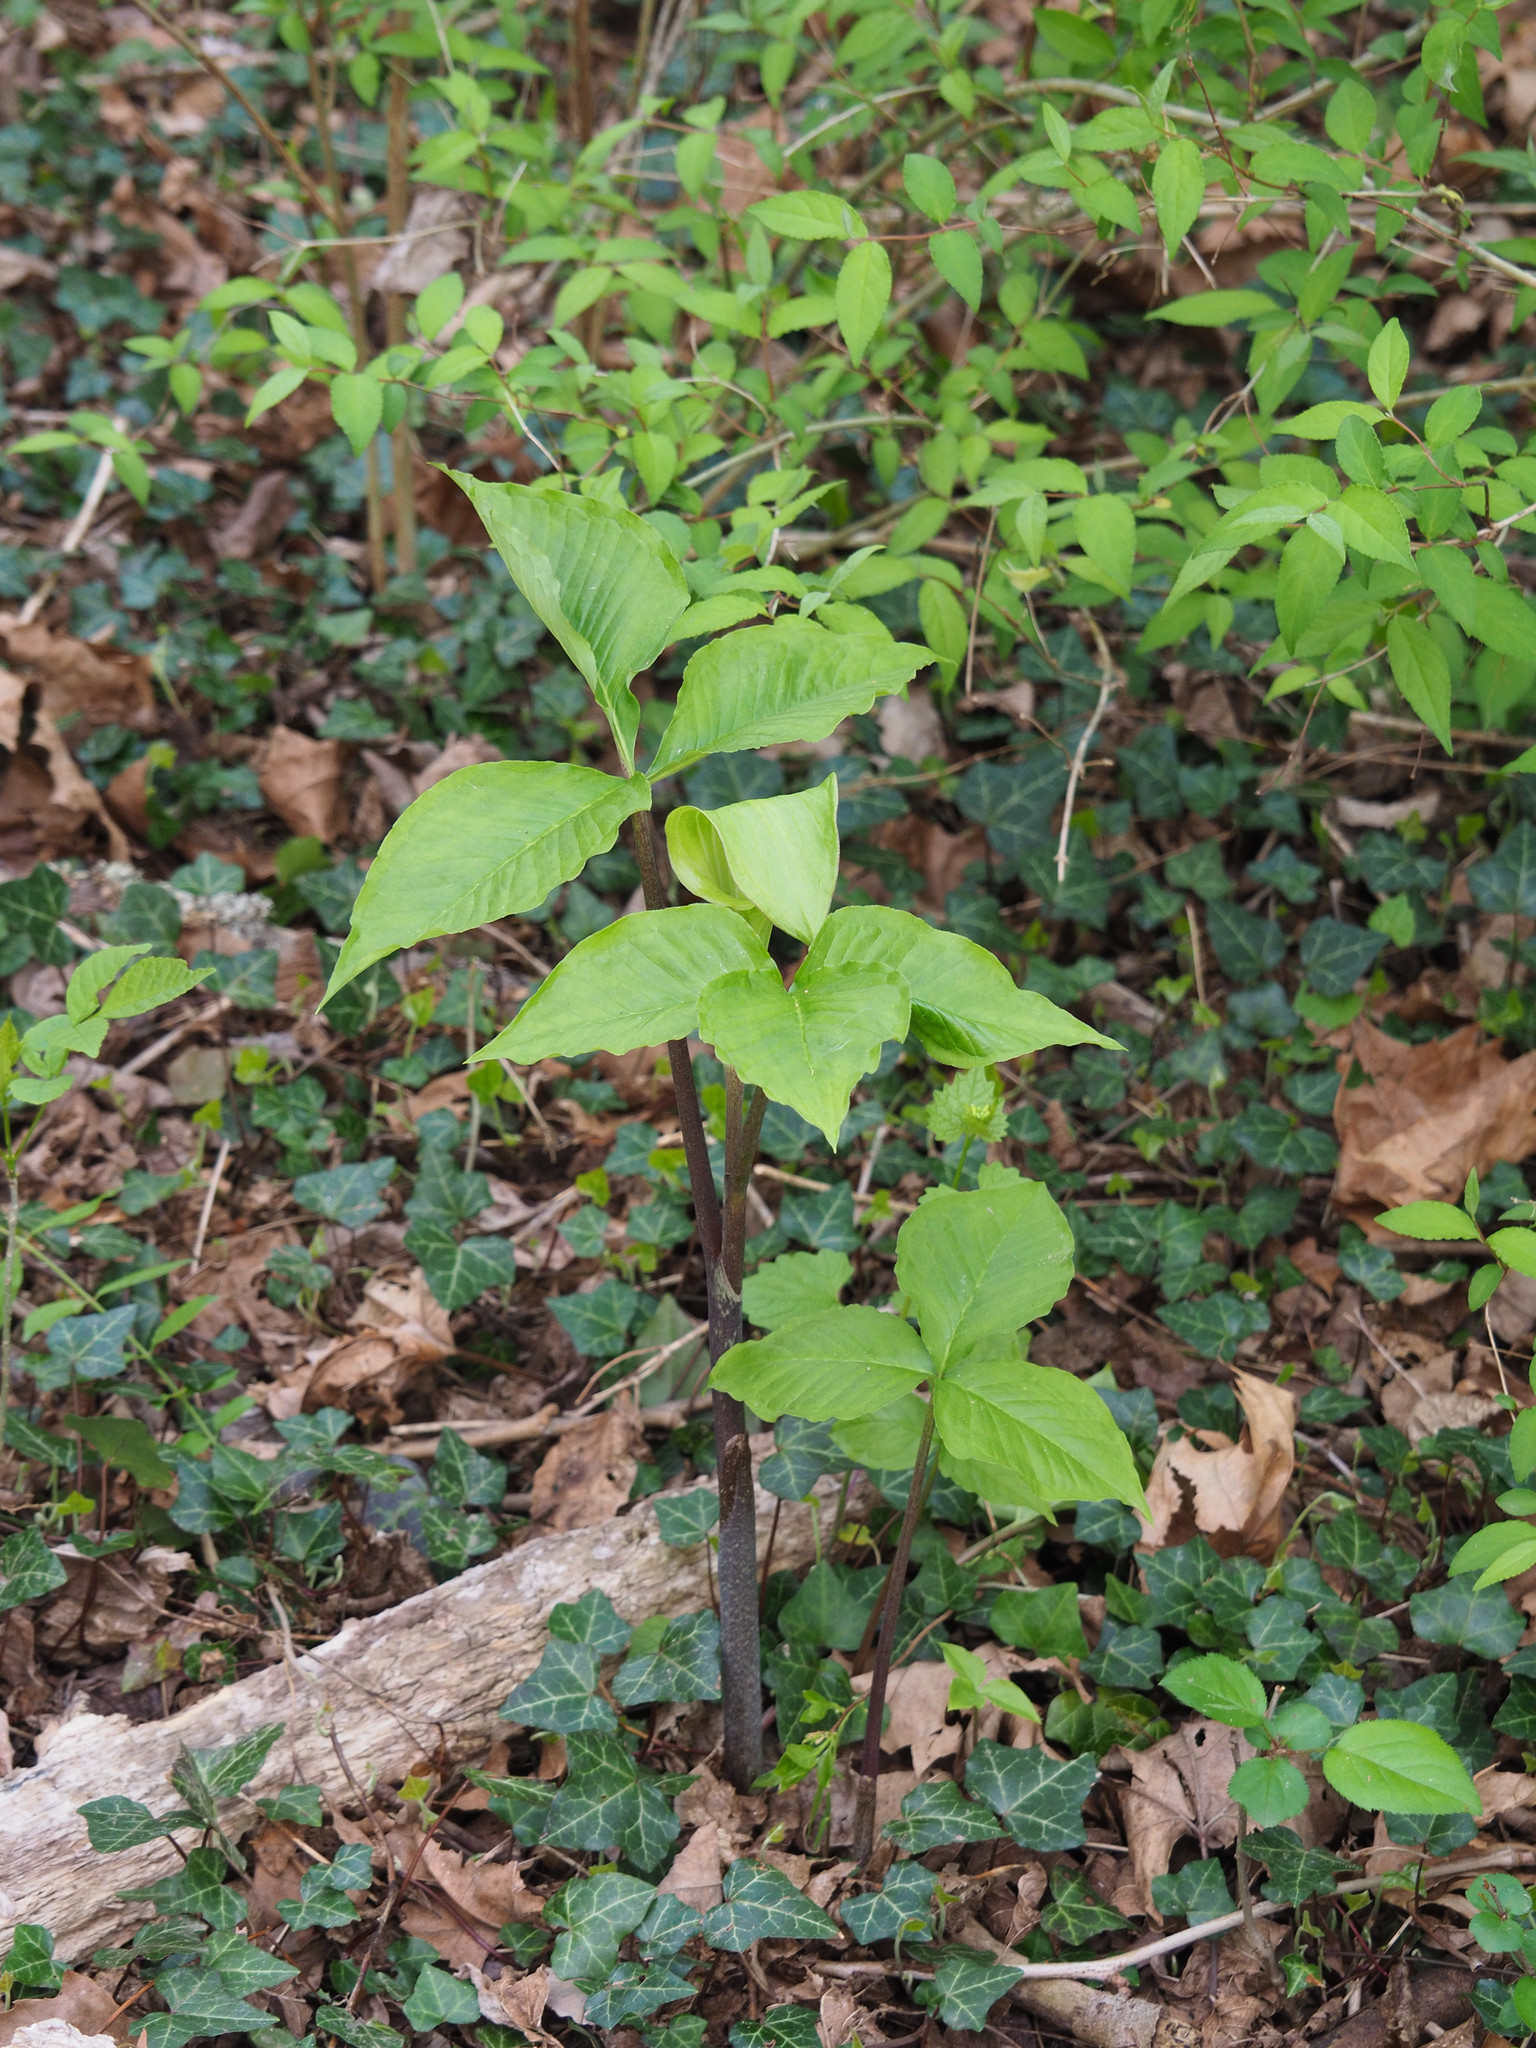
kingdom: Plantae
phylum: Tracheophyta
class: Liliopsida
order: Alismatales
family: Araceae
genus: Arisaema
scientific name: Arisaema triphyllum
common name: Jack-in-the-pulpit
